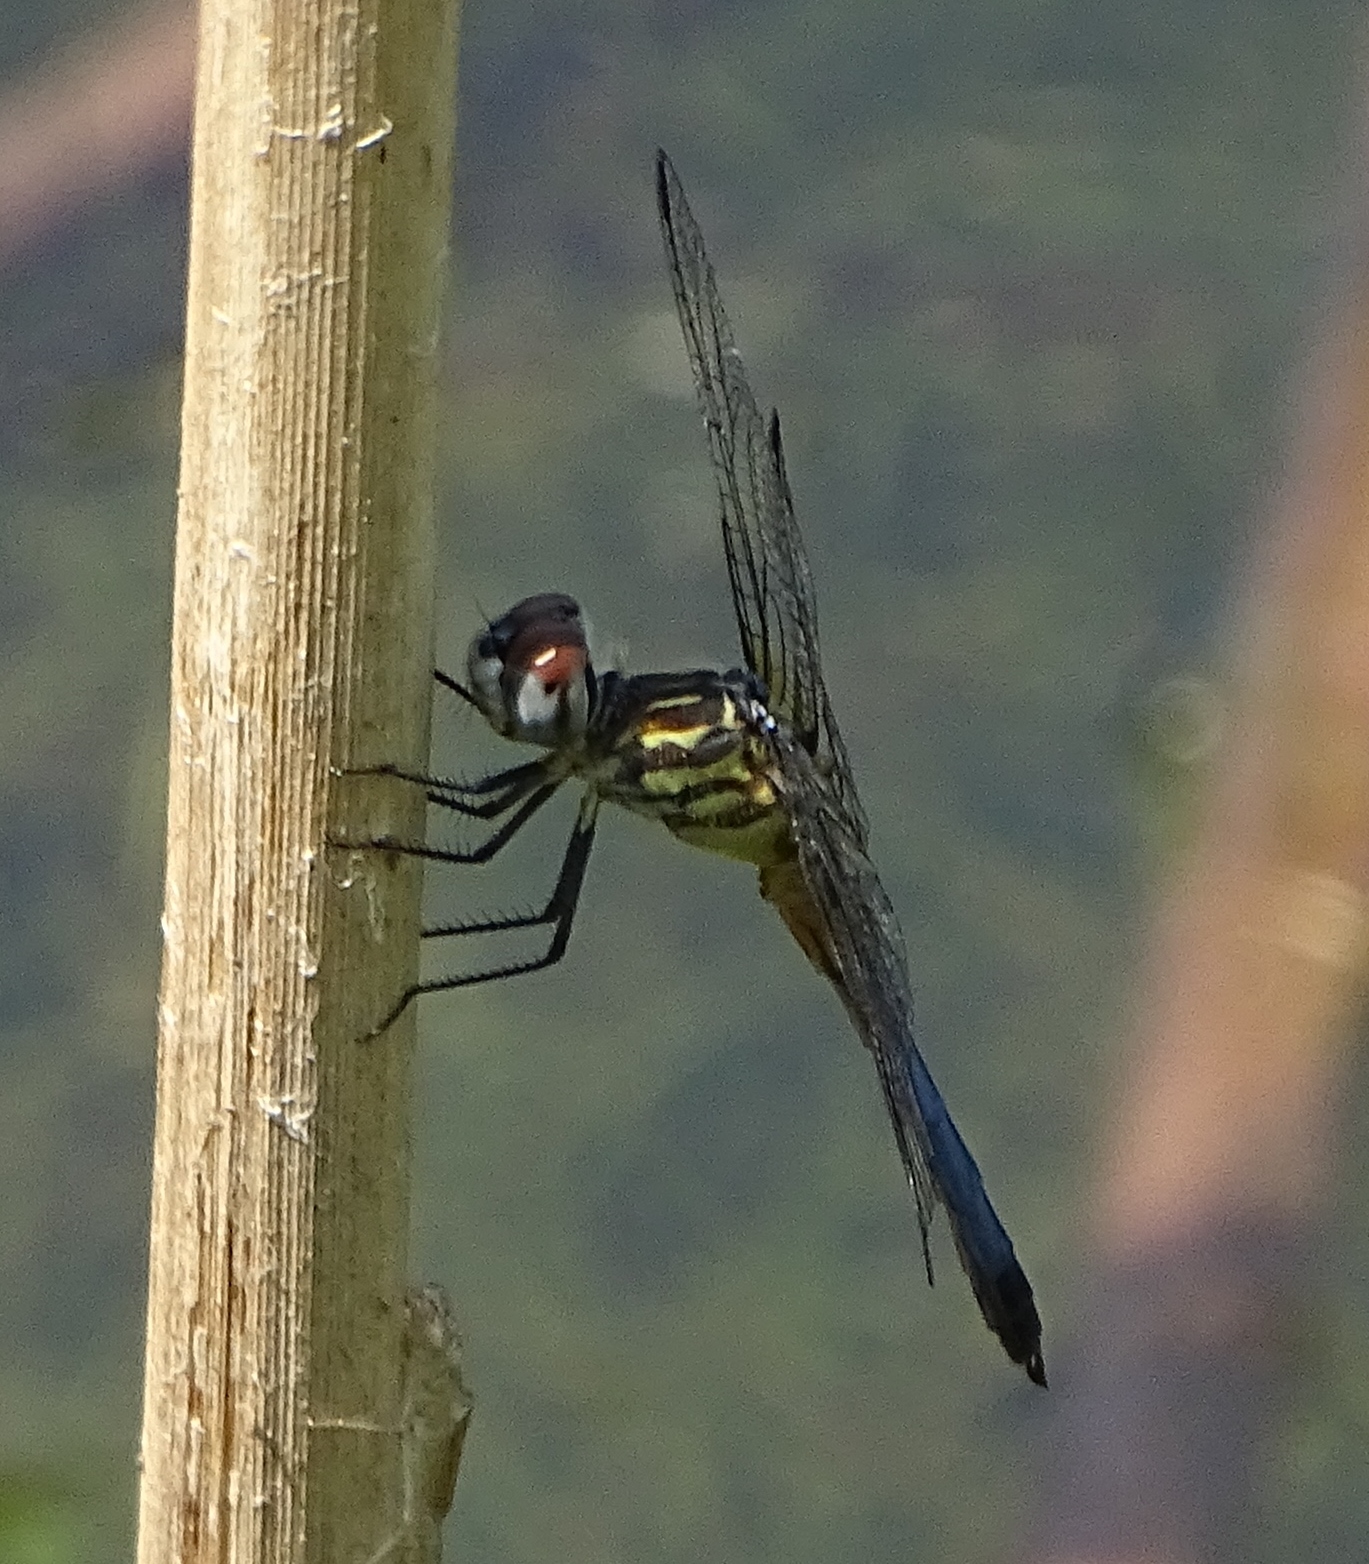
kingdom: Animalia
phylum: Arthropoda
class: Insecta
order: Odonata
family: Libellulidae
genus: Pachydiplax
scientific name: Pachydiplax longipennis
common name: Blue dasher
